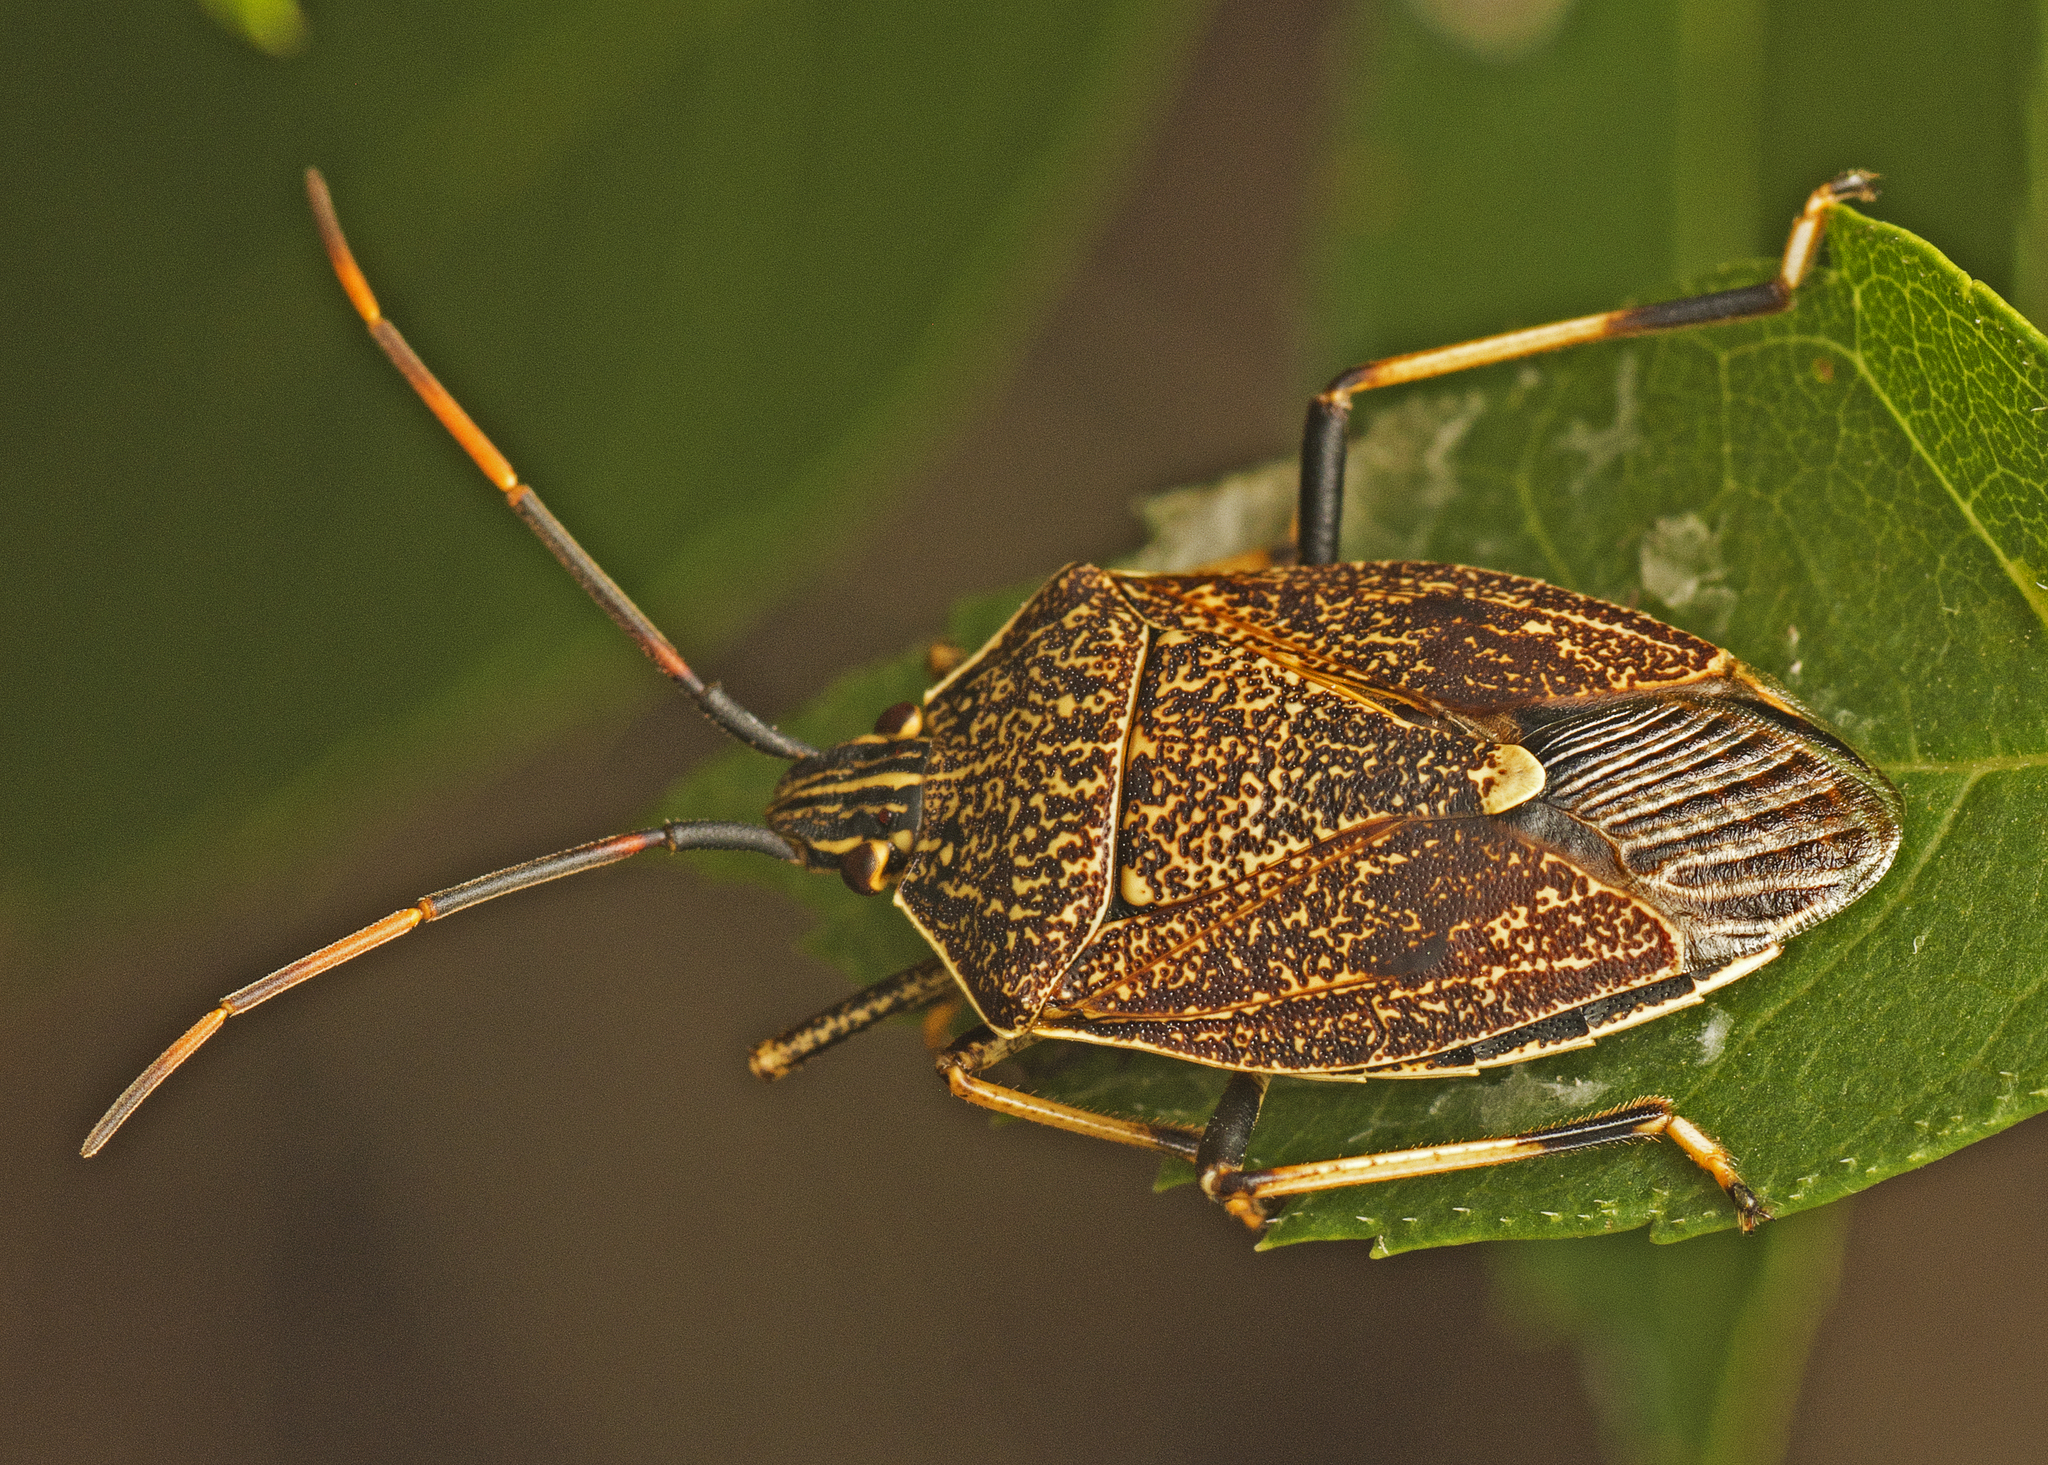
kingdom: Animalia
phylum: Arthropoda
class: Insecta
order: Hemiptera
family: Pentatomidae
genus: Poecilometis
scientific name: Poecilometis
